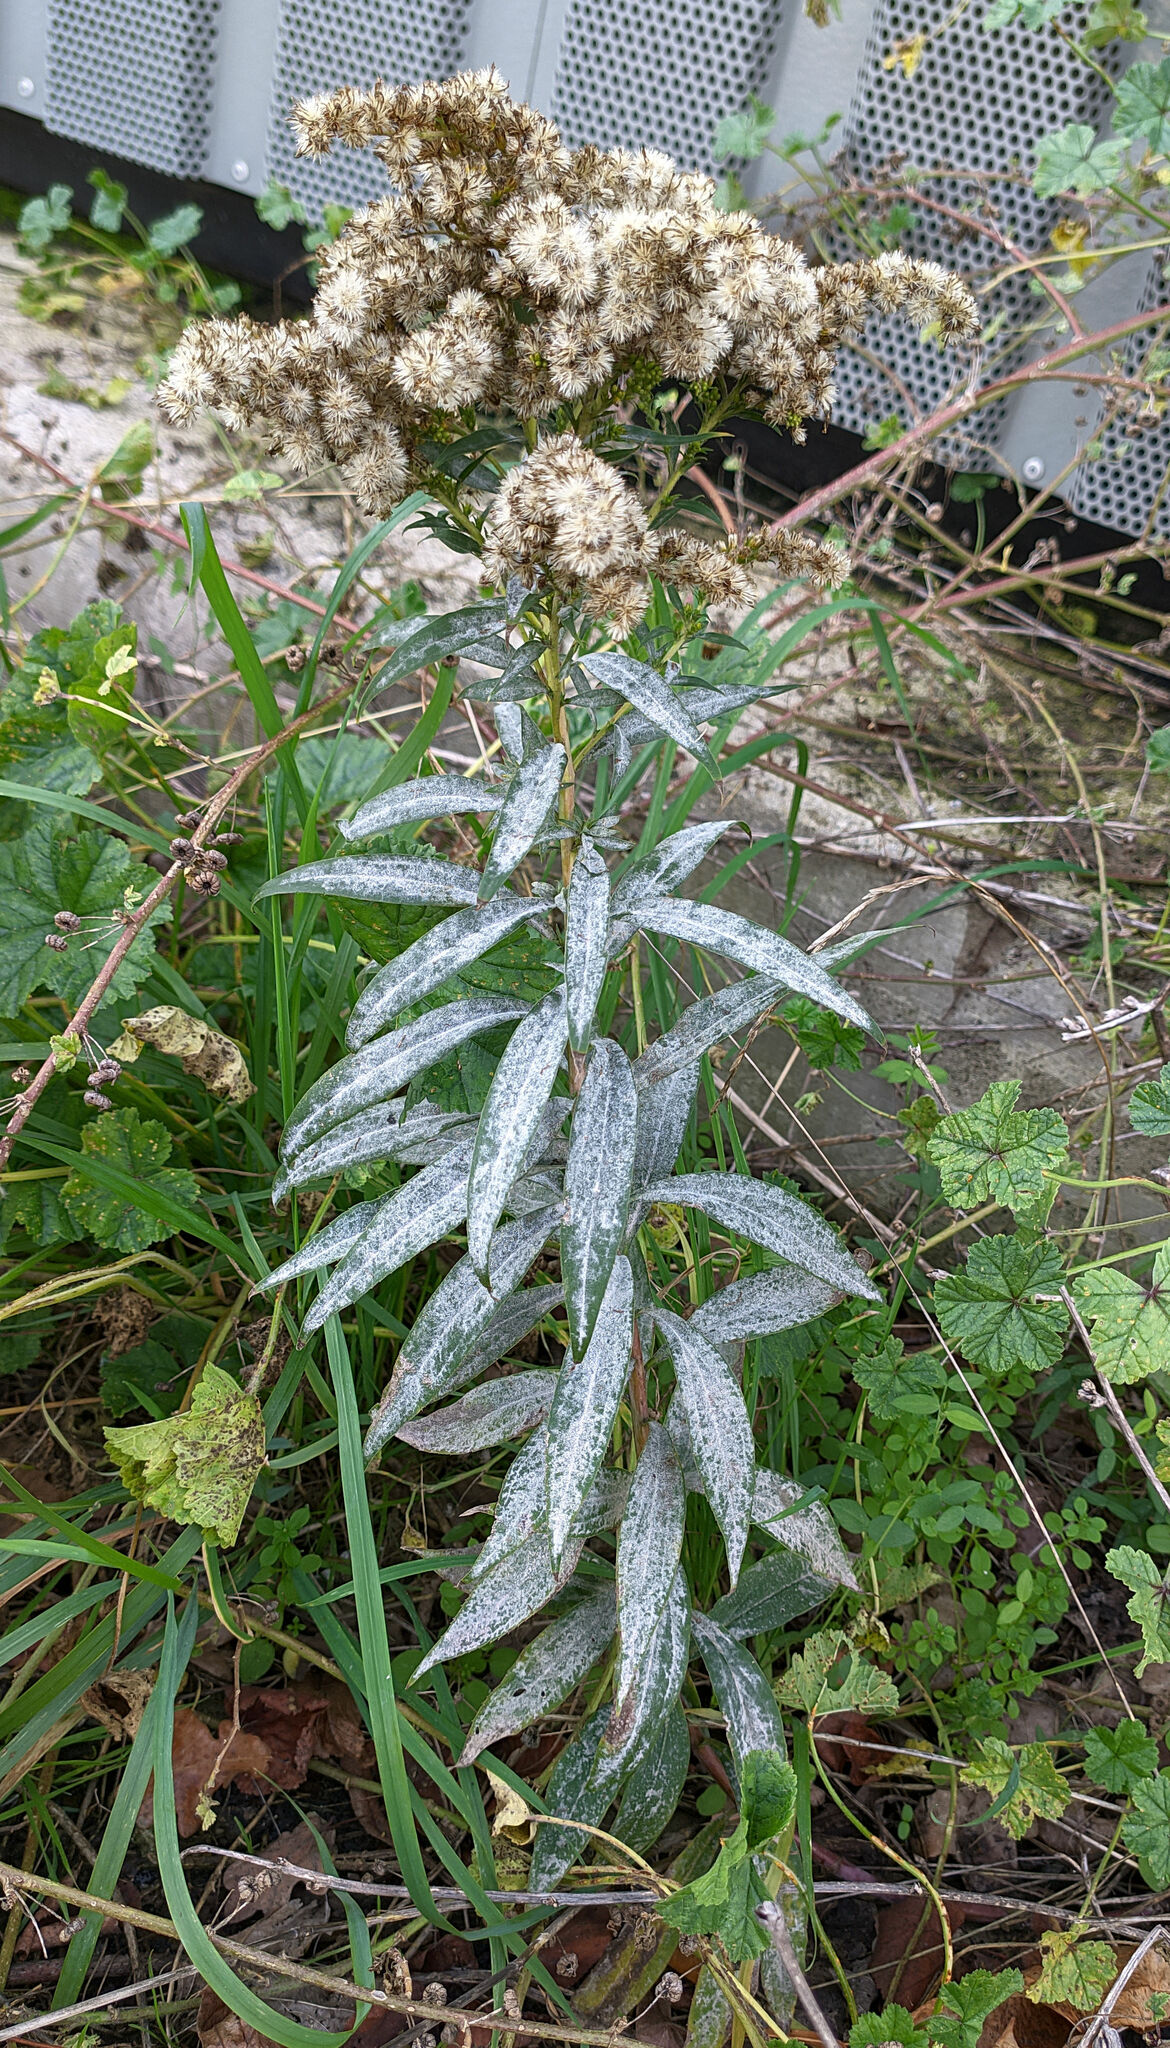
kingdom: Plantae
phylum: Tracheophyta
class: Magnoliopsida
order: Asterales
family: Asteraceae
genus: Solidago
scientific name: Solidago canadensis
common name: Canada goldenrod
